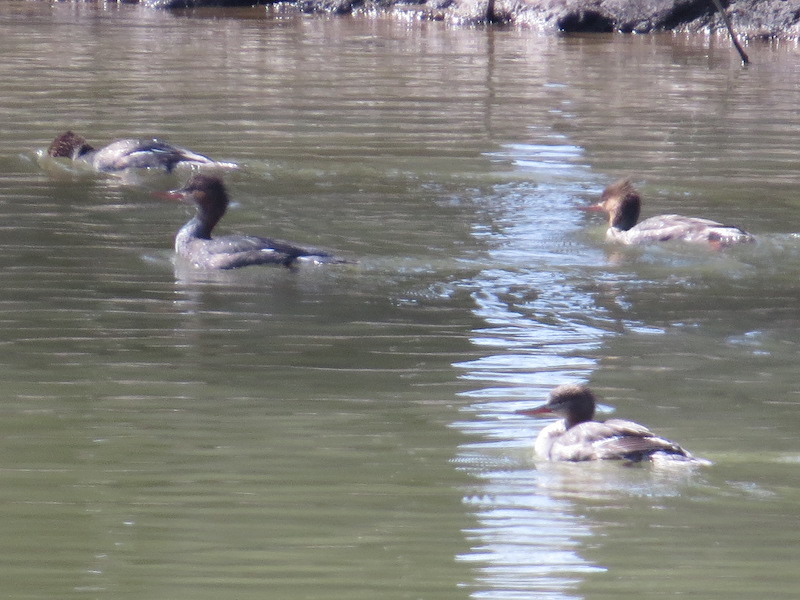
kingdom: Animalia
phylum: Chordata
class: Aves
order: Anseriformes
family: Anatidae
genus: Mergus
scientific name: Mergus serrator
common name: Red-breasted merganser
